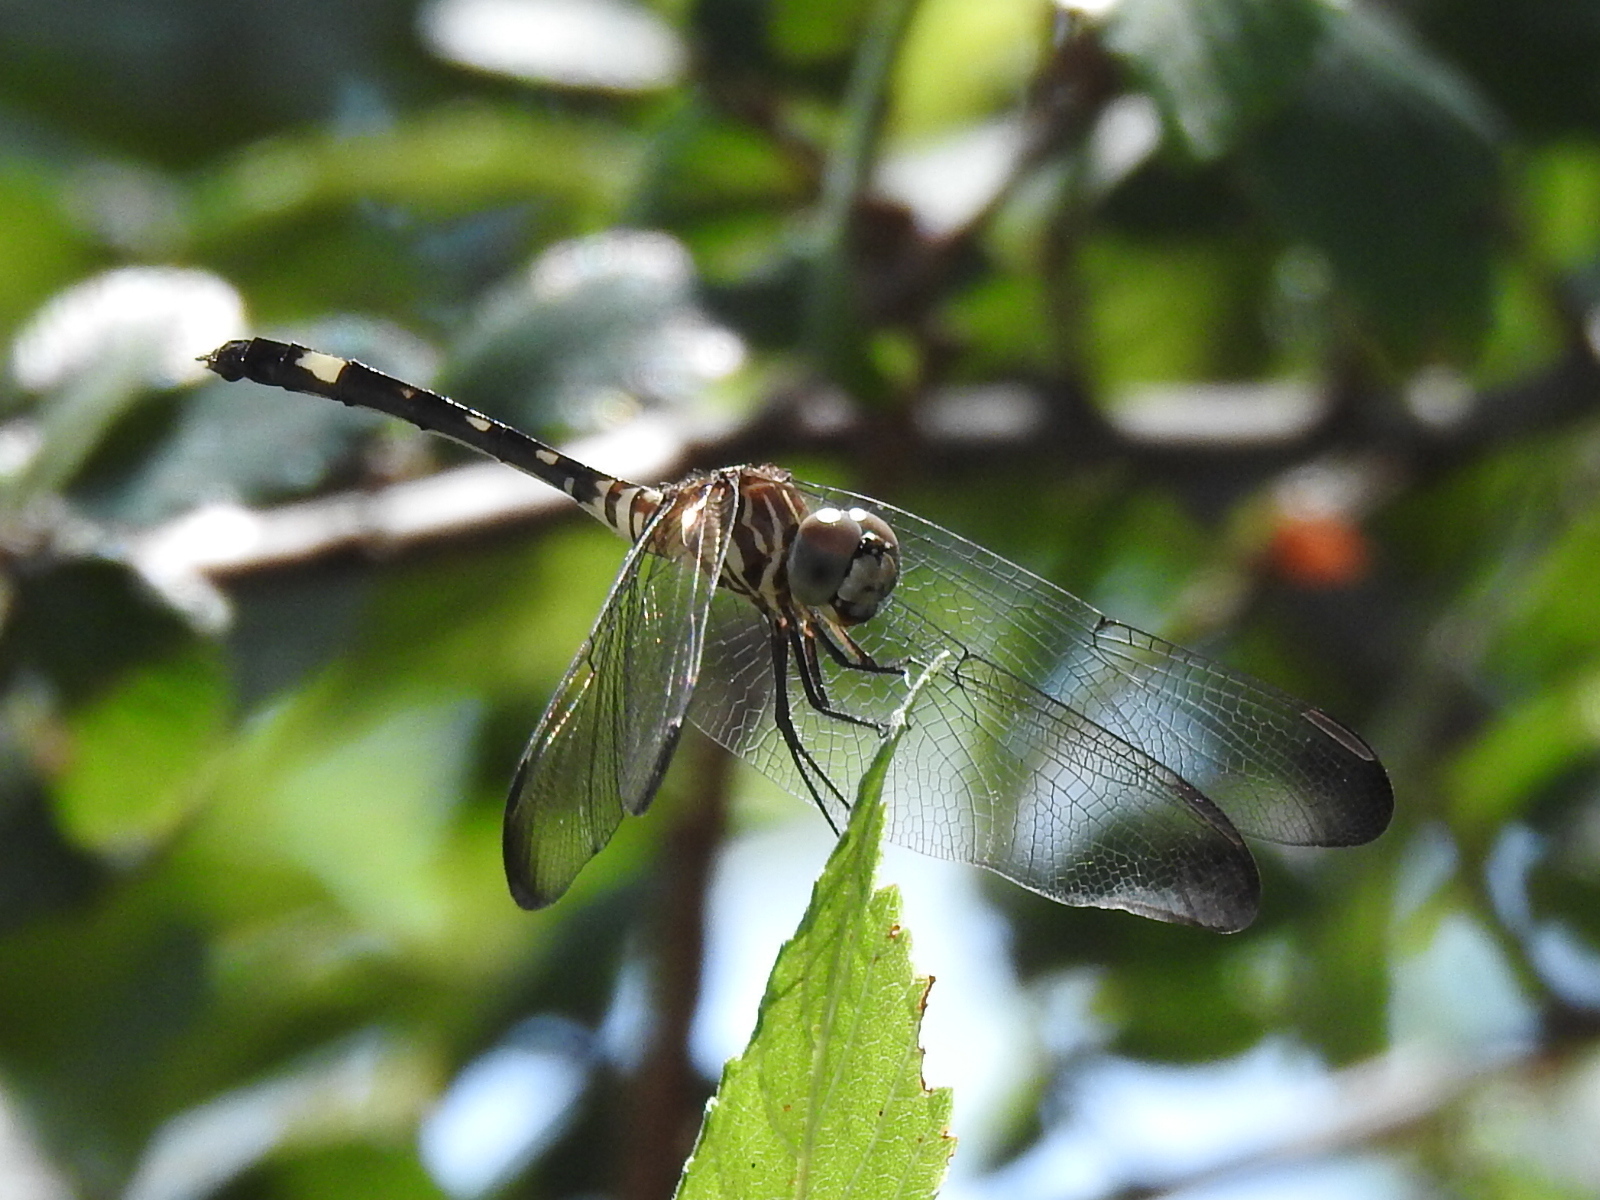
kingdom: Animalia
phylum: Arthropoda
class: Insecta
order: Odonata
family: Libellulidae
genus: Dythemis
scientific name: Dythemis velox
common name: Swift setwing
